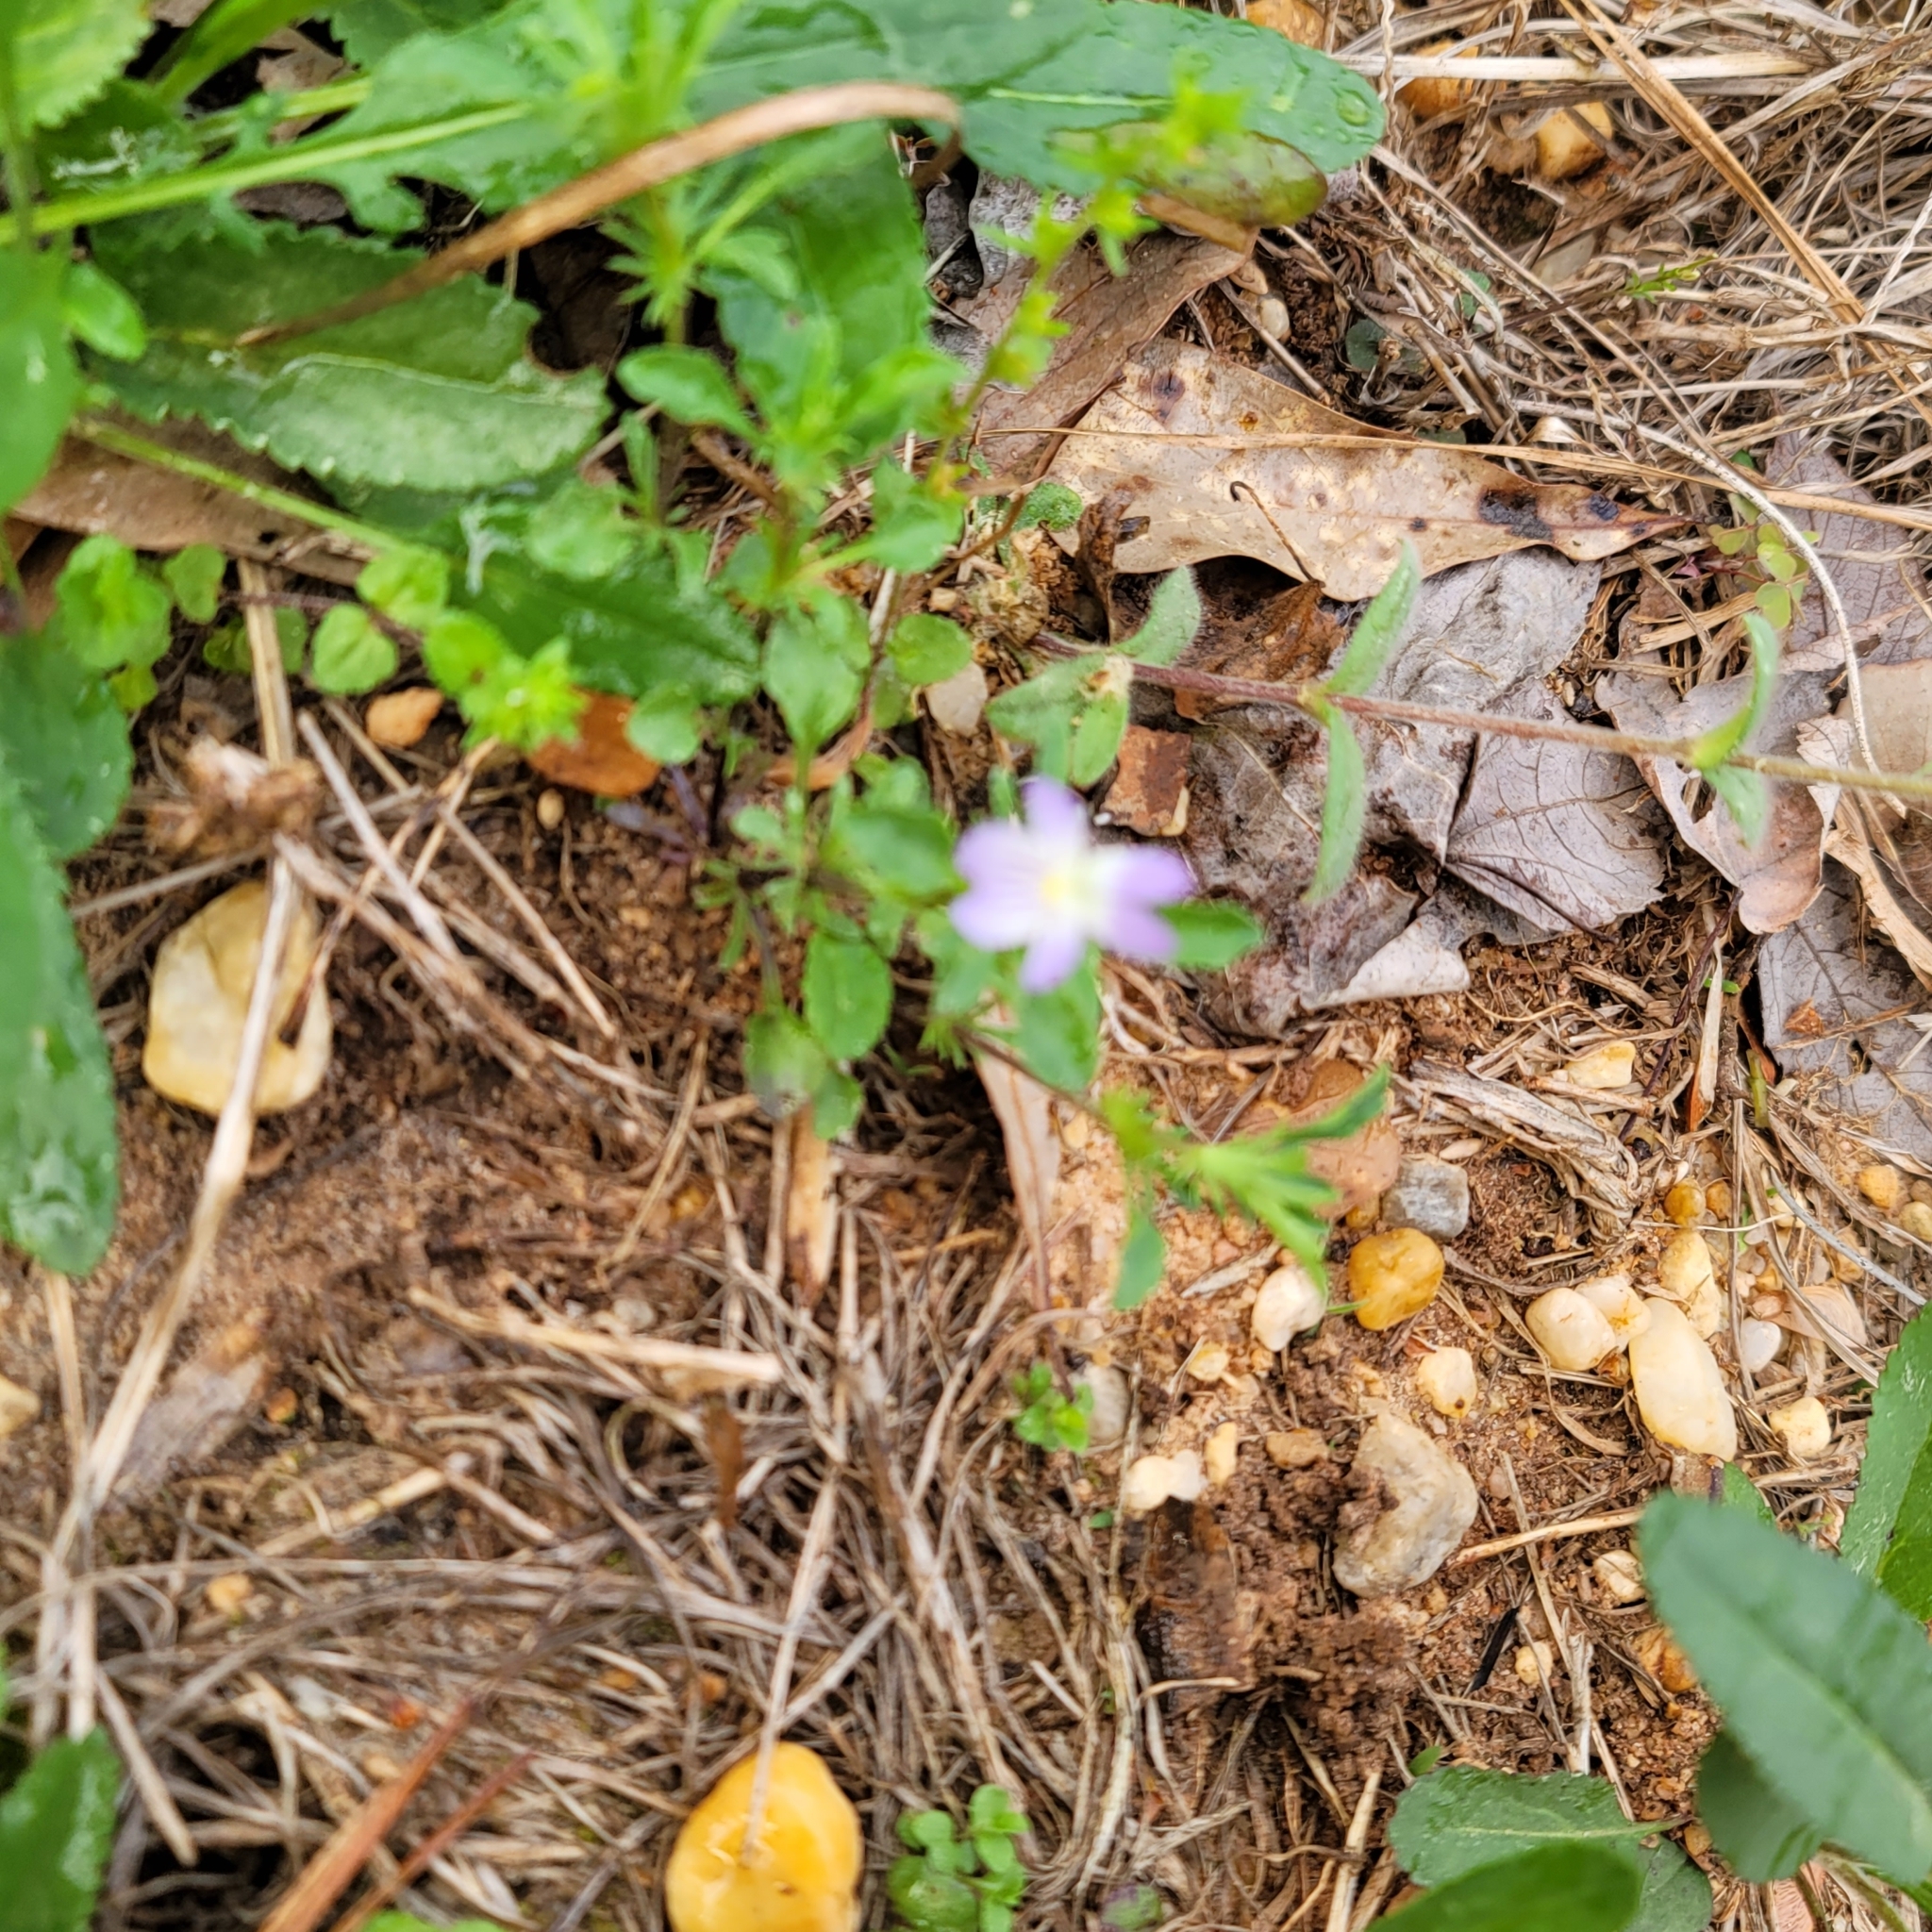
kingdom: Plantae
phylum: Tracheophyta
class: Magnoliopsida
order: Malpighiales
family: Violaceae
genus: Viola
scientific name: Viola rafinesquei
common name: American field pansy
